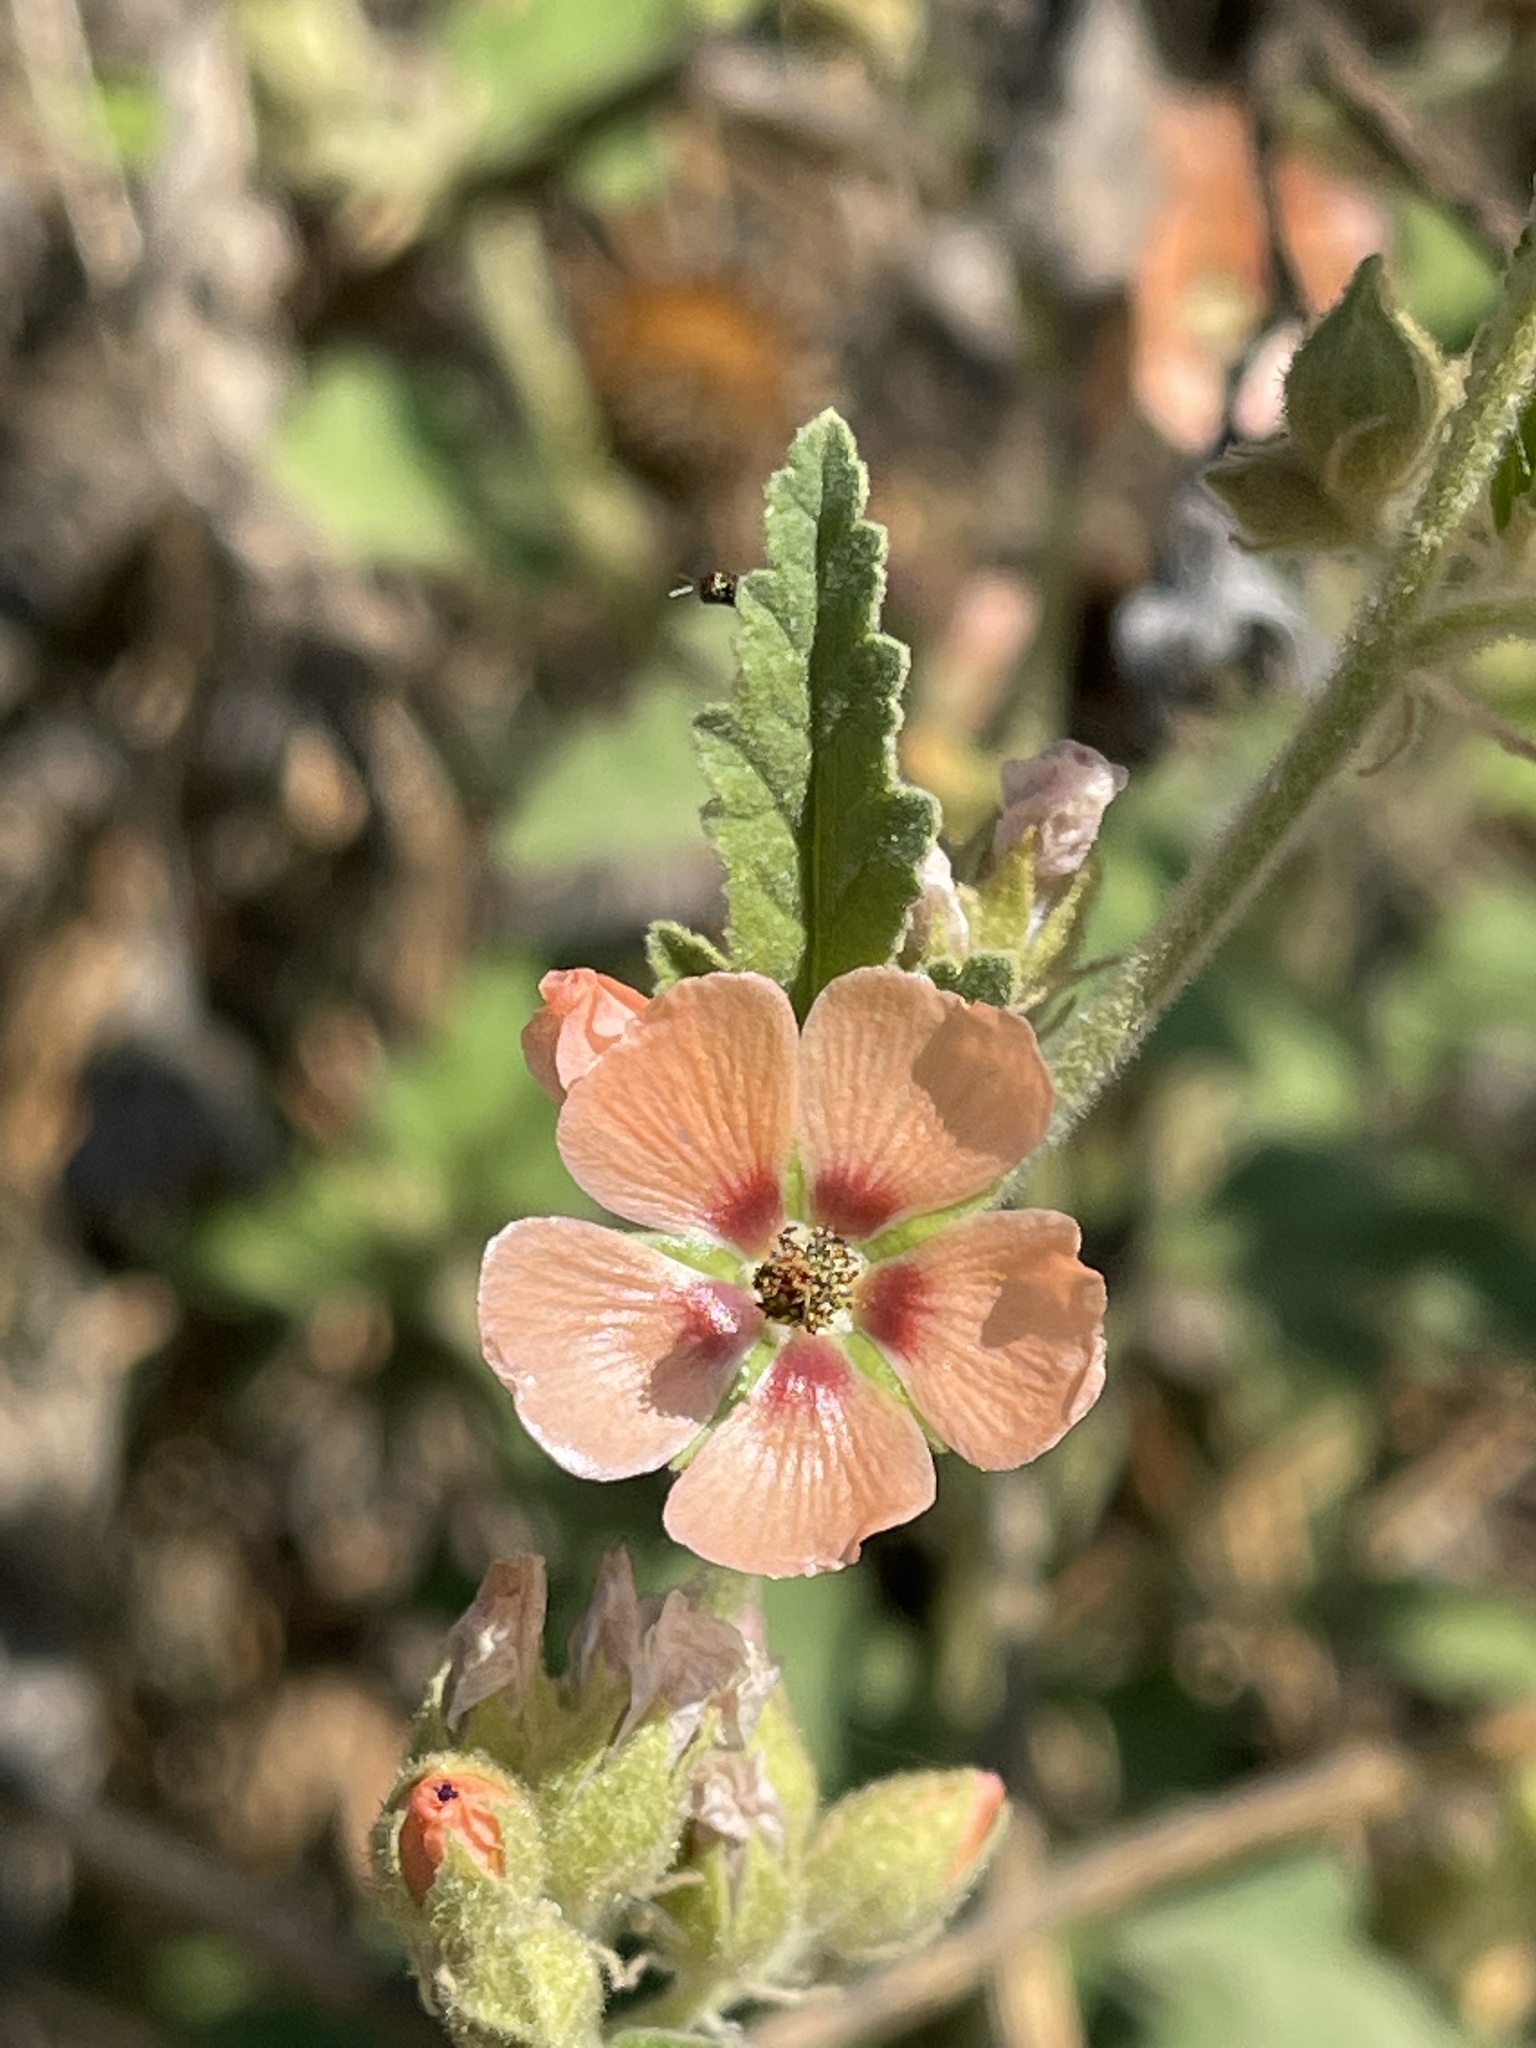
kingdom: Plantae
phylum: Tracheophyta
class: Magnoliopsida
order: Malvales
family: Malvaceae
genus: Sphaeralcea
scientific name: Sphaeralcea bonariensis
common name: Latin globemallow
